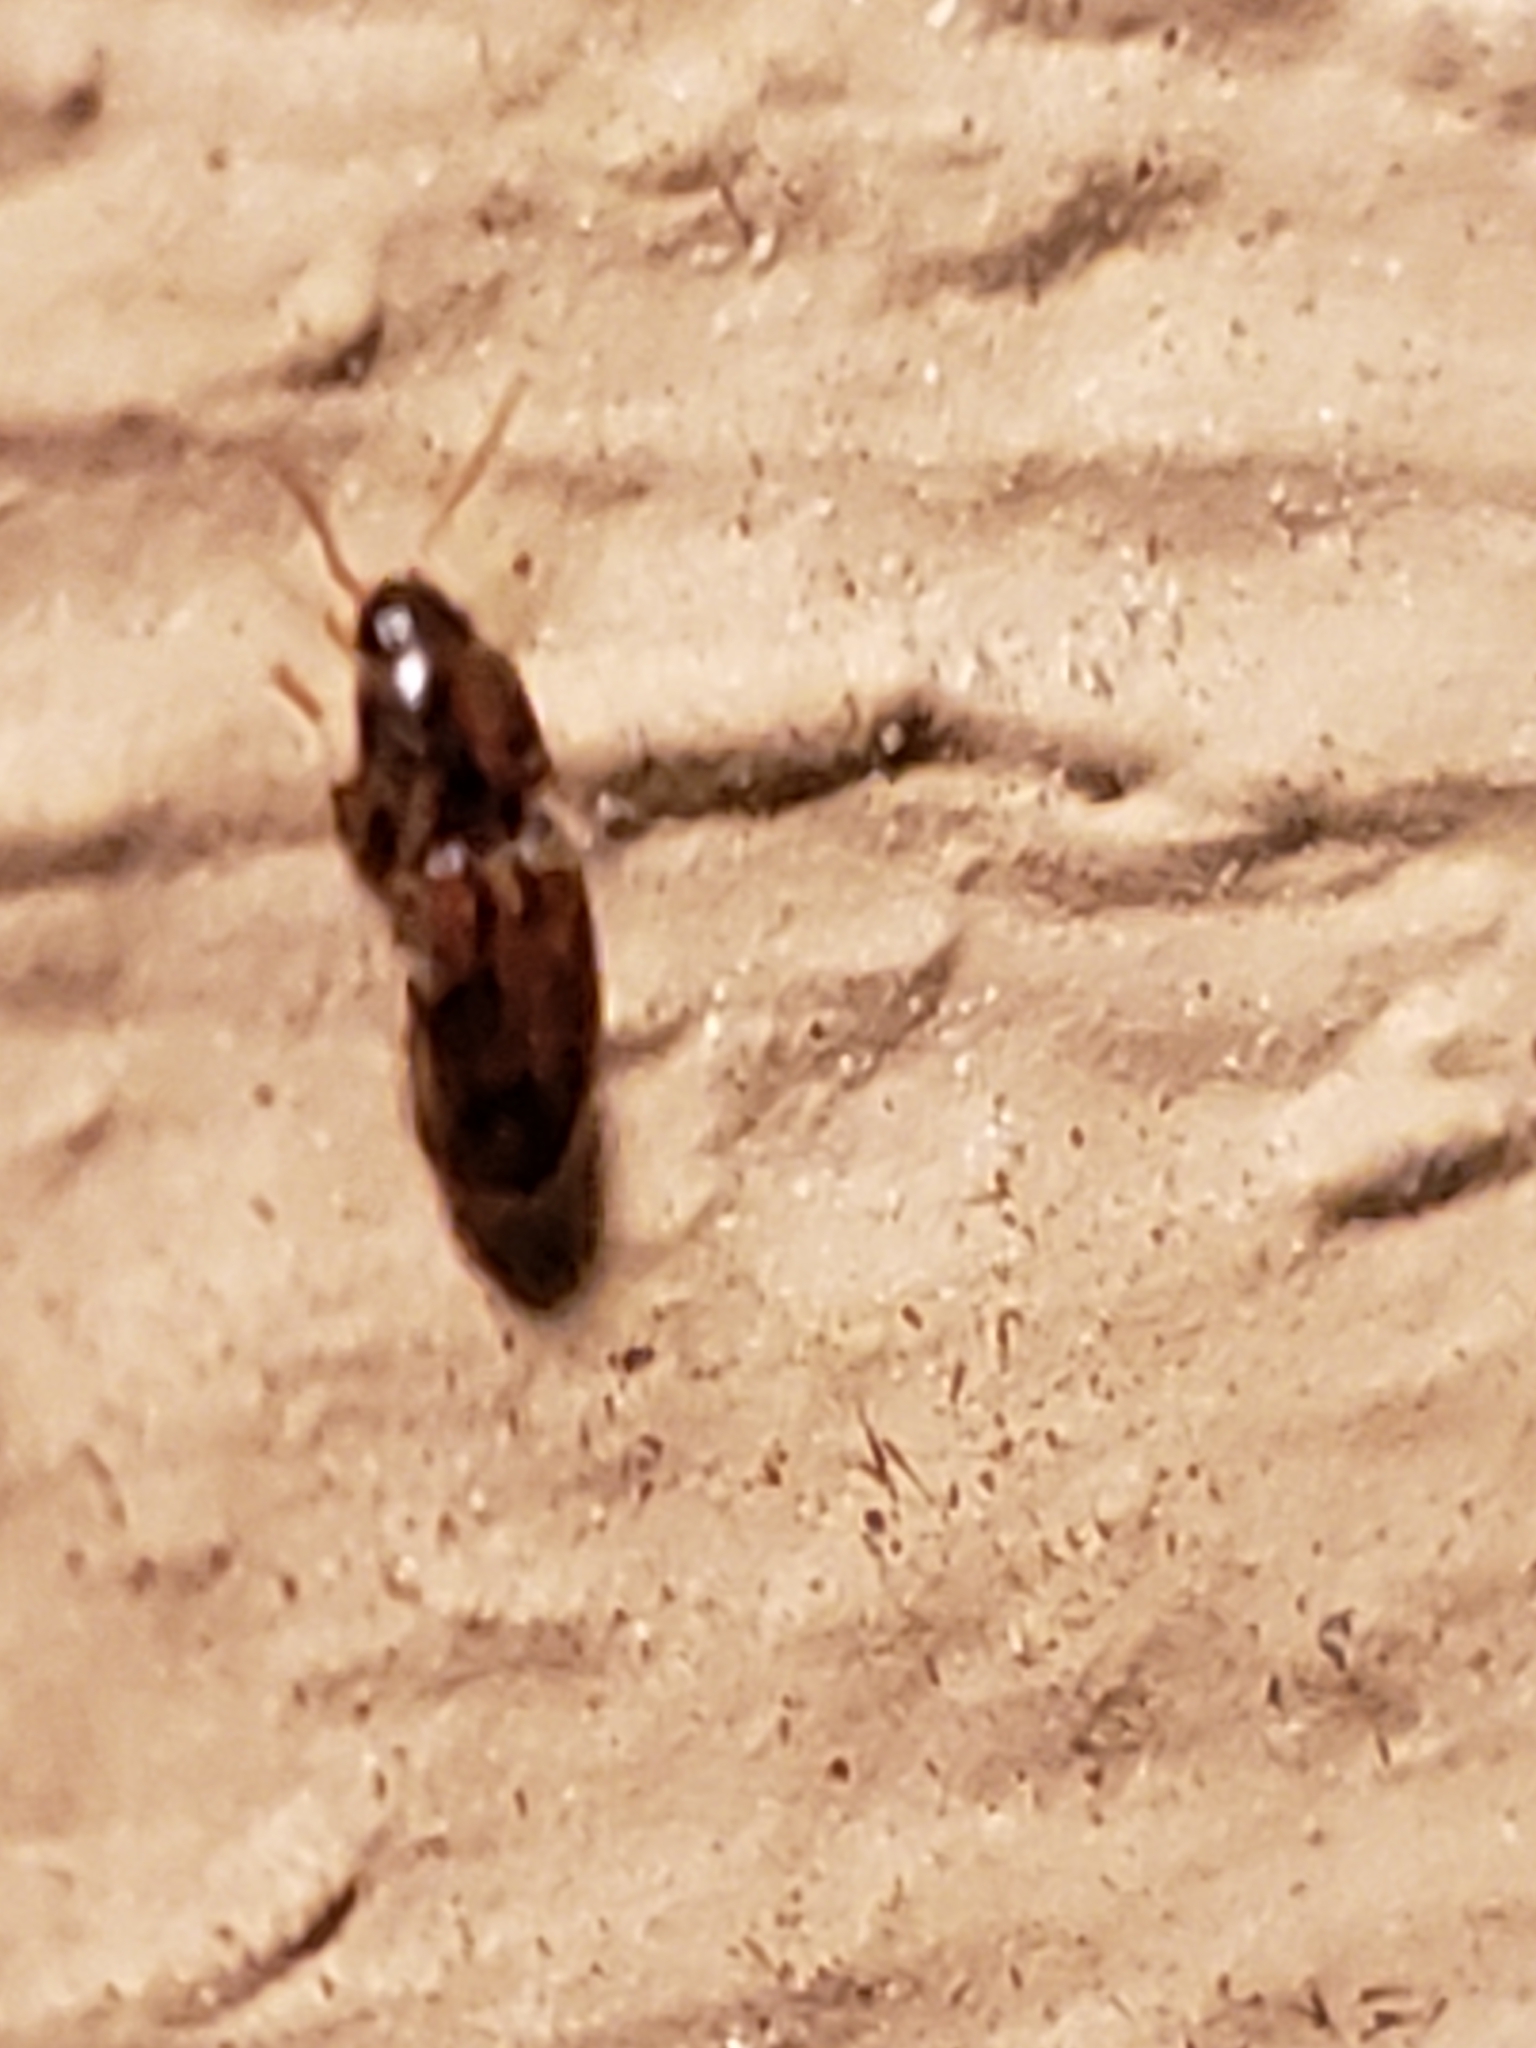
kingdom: Animalia
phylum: Arthropoda
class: Insecta
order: Coleoptera
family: Elateridae
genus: Monocrepidius
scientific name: Monocrepidius bellus
